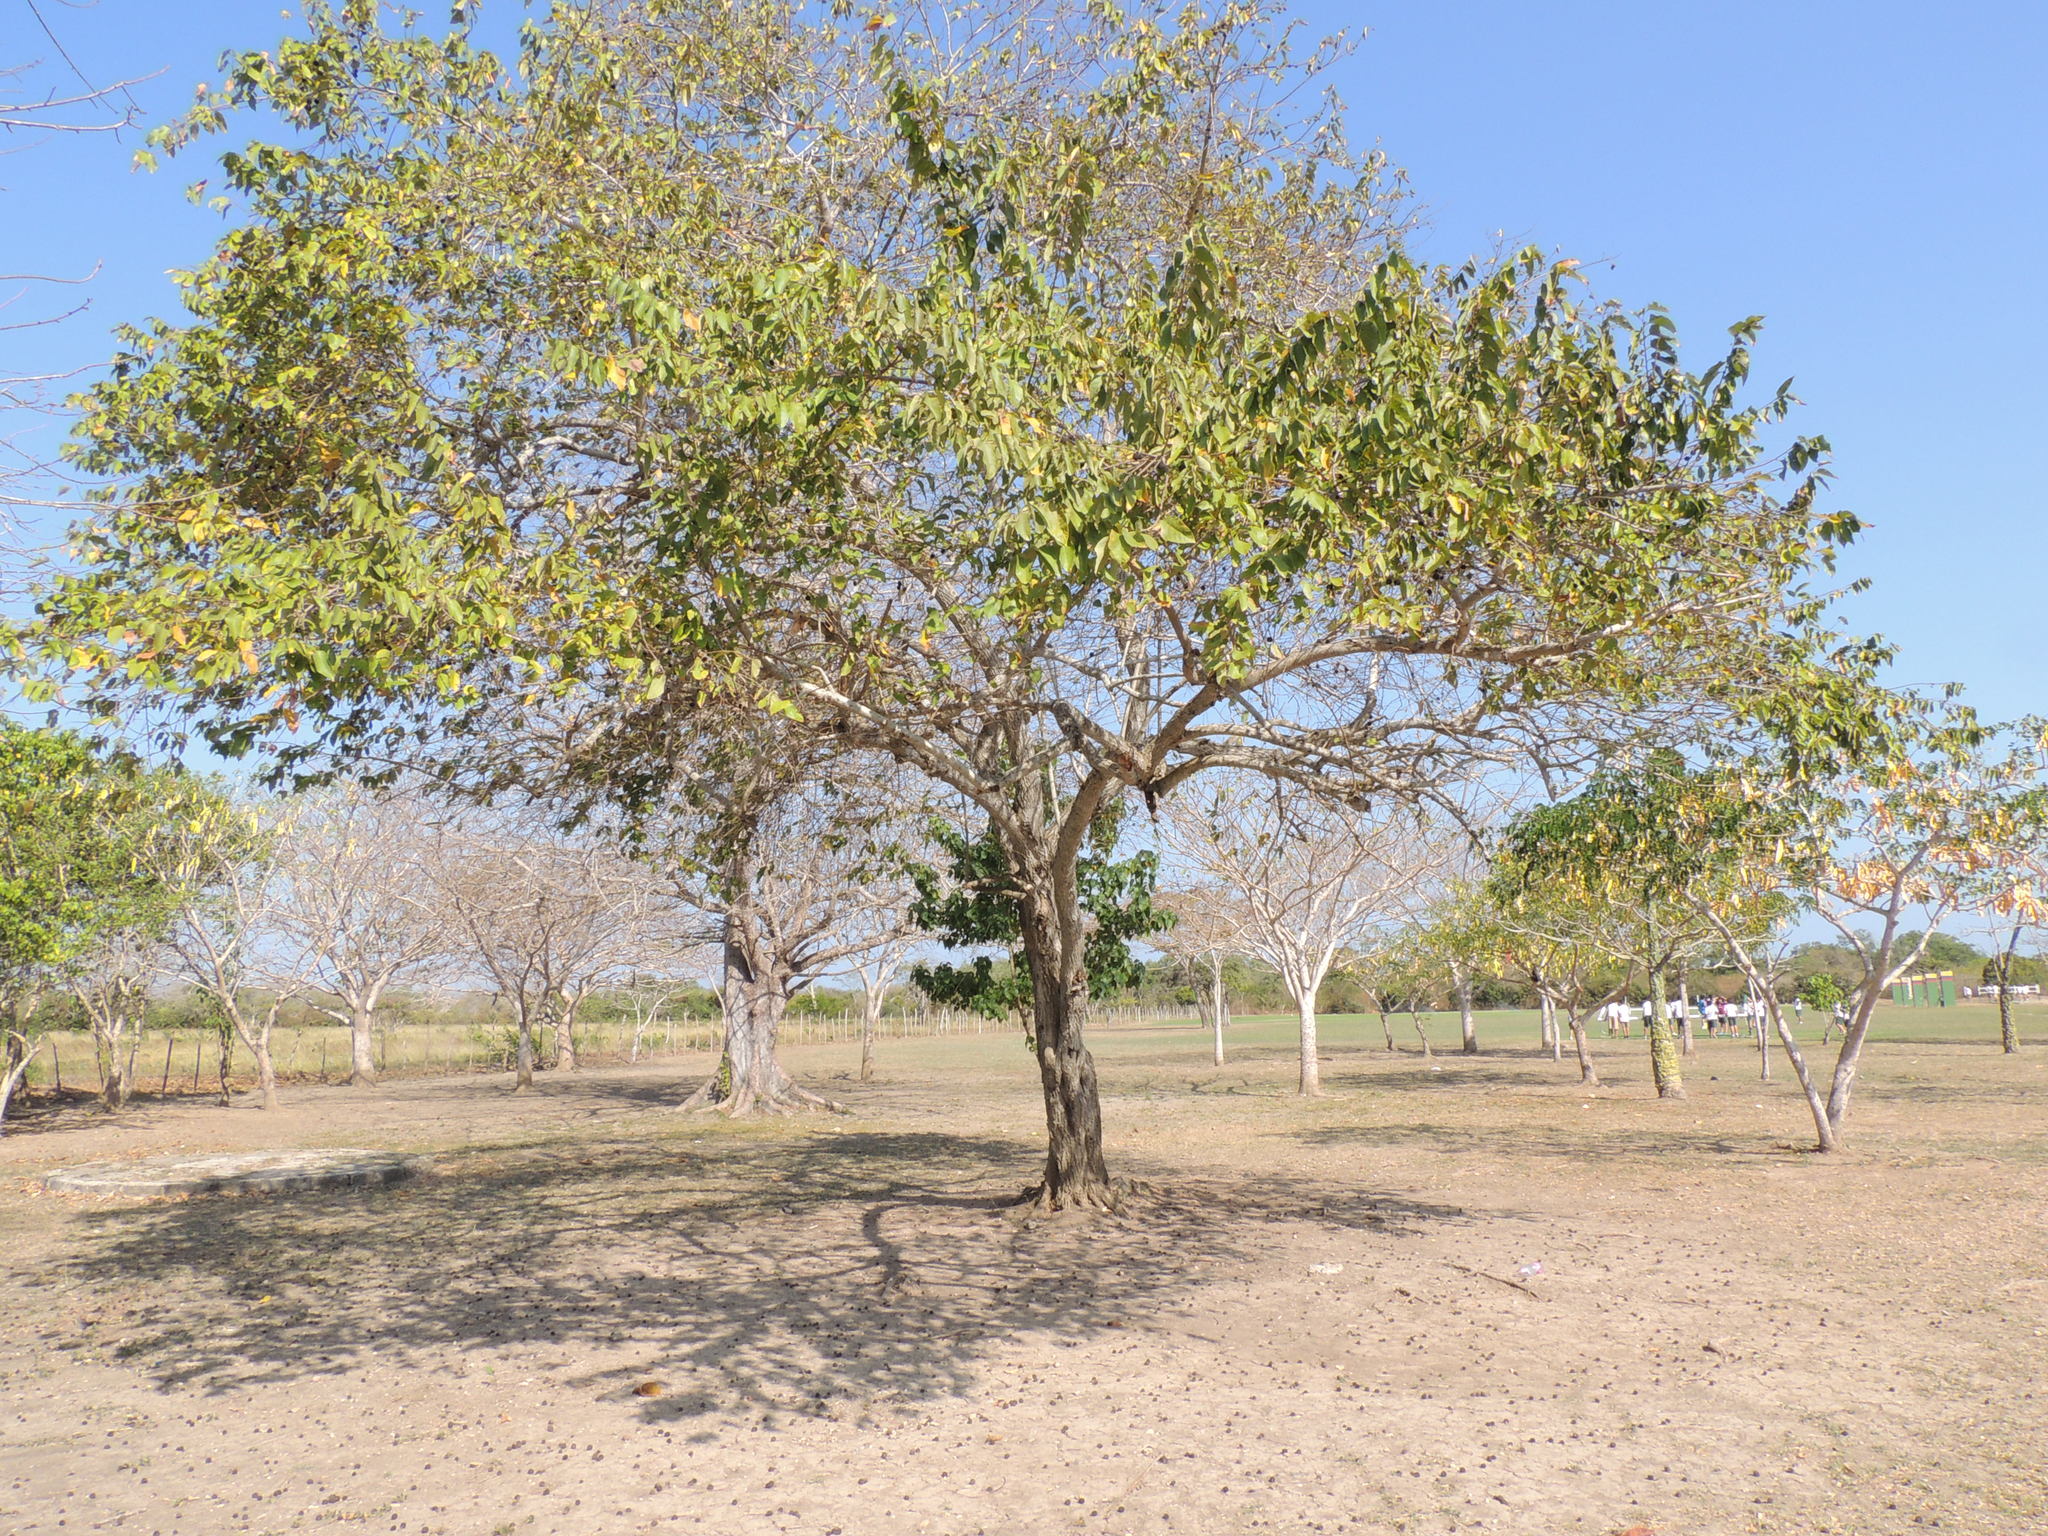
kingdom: Plantae
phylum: Tracheophyta
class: Magnoliopsida
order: Malvales
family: Malvaceae
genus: Guazuma
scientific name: Guazuma ulmifolia
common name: Bastard-cedar
